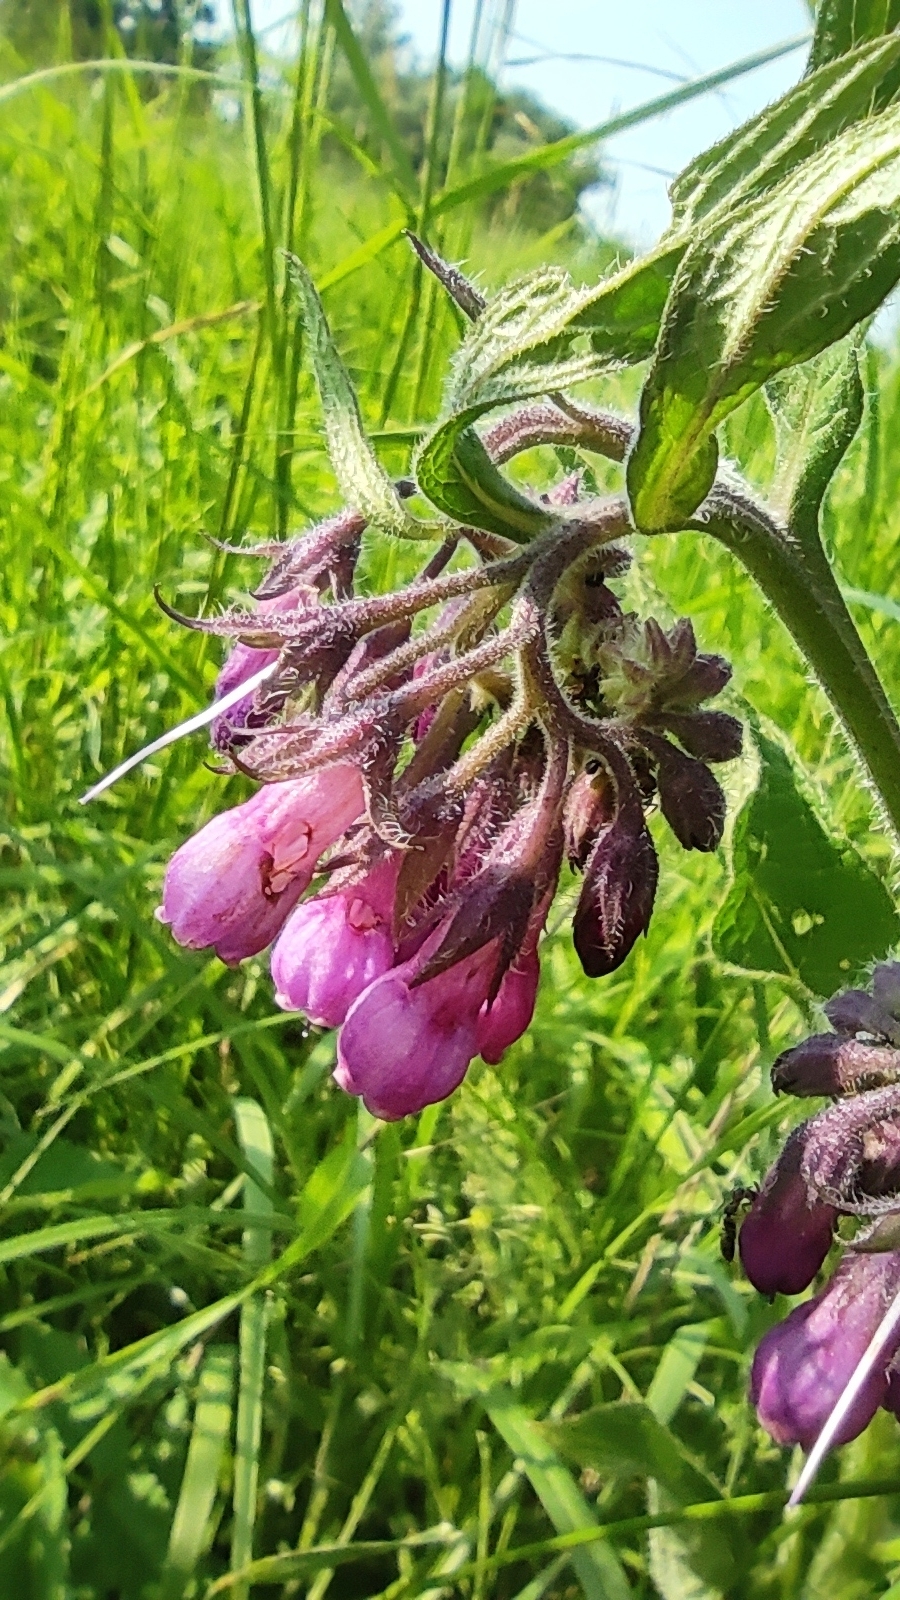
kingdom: Plantae
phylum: Tracheophyta
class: Magnoliopsida
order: Boraginales
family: Boraginaceae
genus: Symphytum
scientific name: Symphytum officinale
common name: Common comfrey
